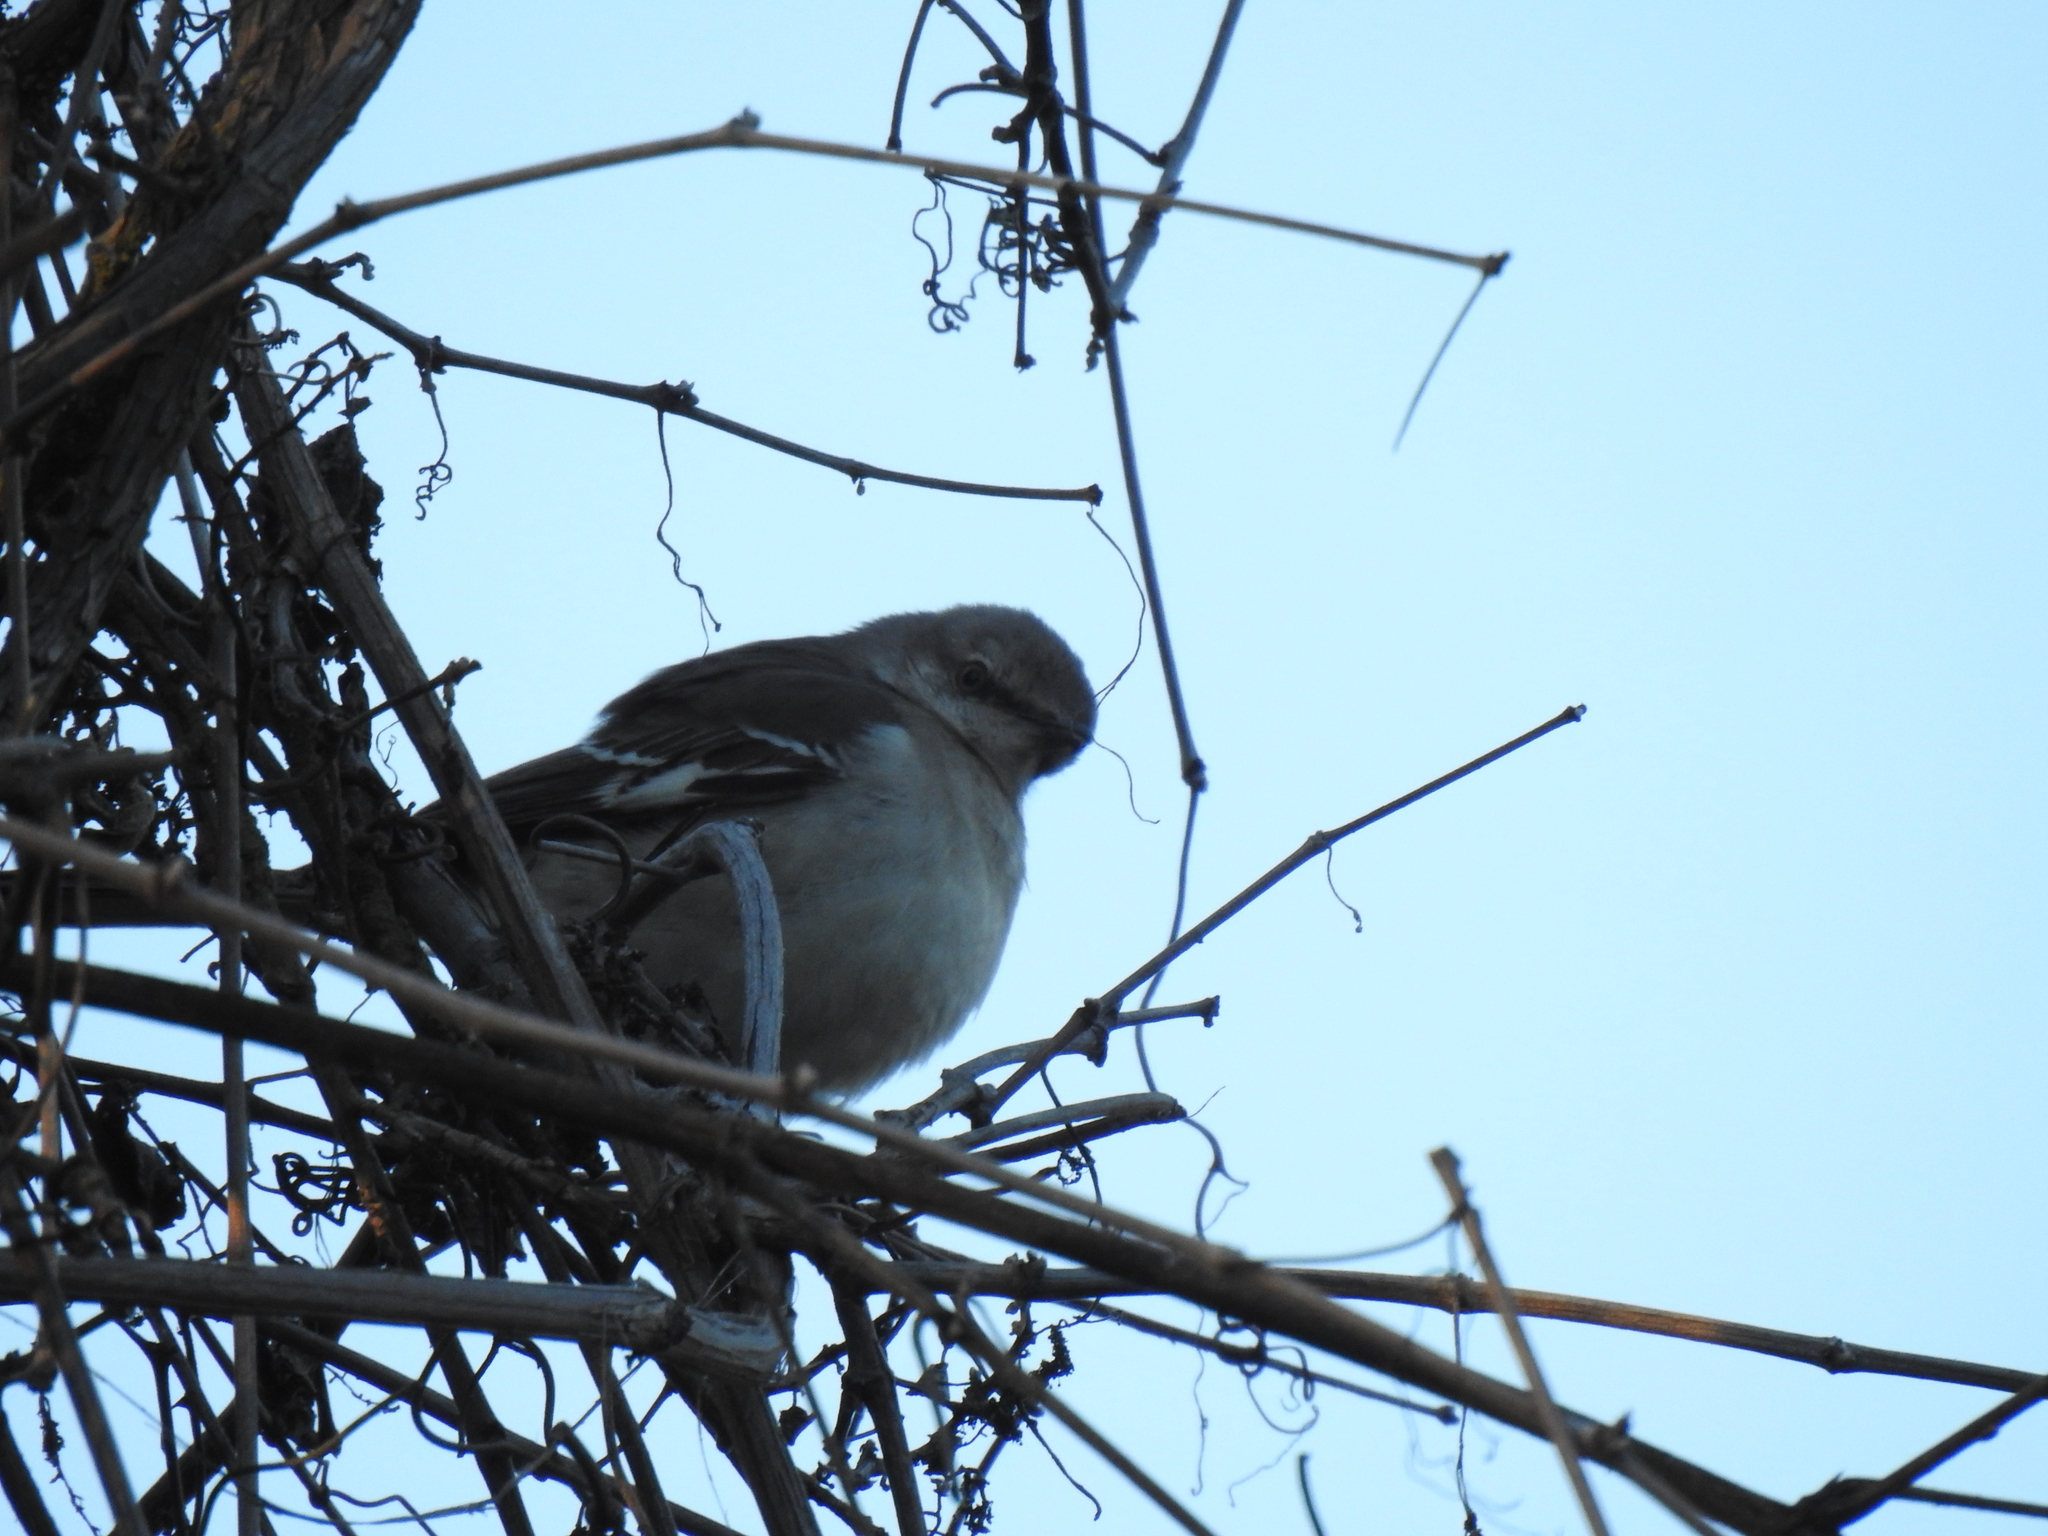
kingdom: Animalia
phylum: Chordata
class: Aves
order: Passeriformes
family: Mimidae
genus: Mimus
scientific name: Mimus polyglottos
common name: Northern mockingbird
